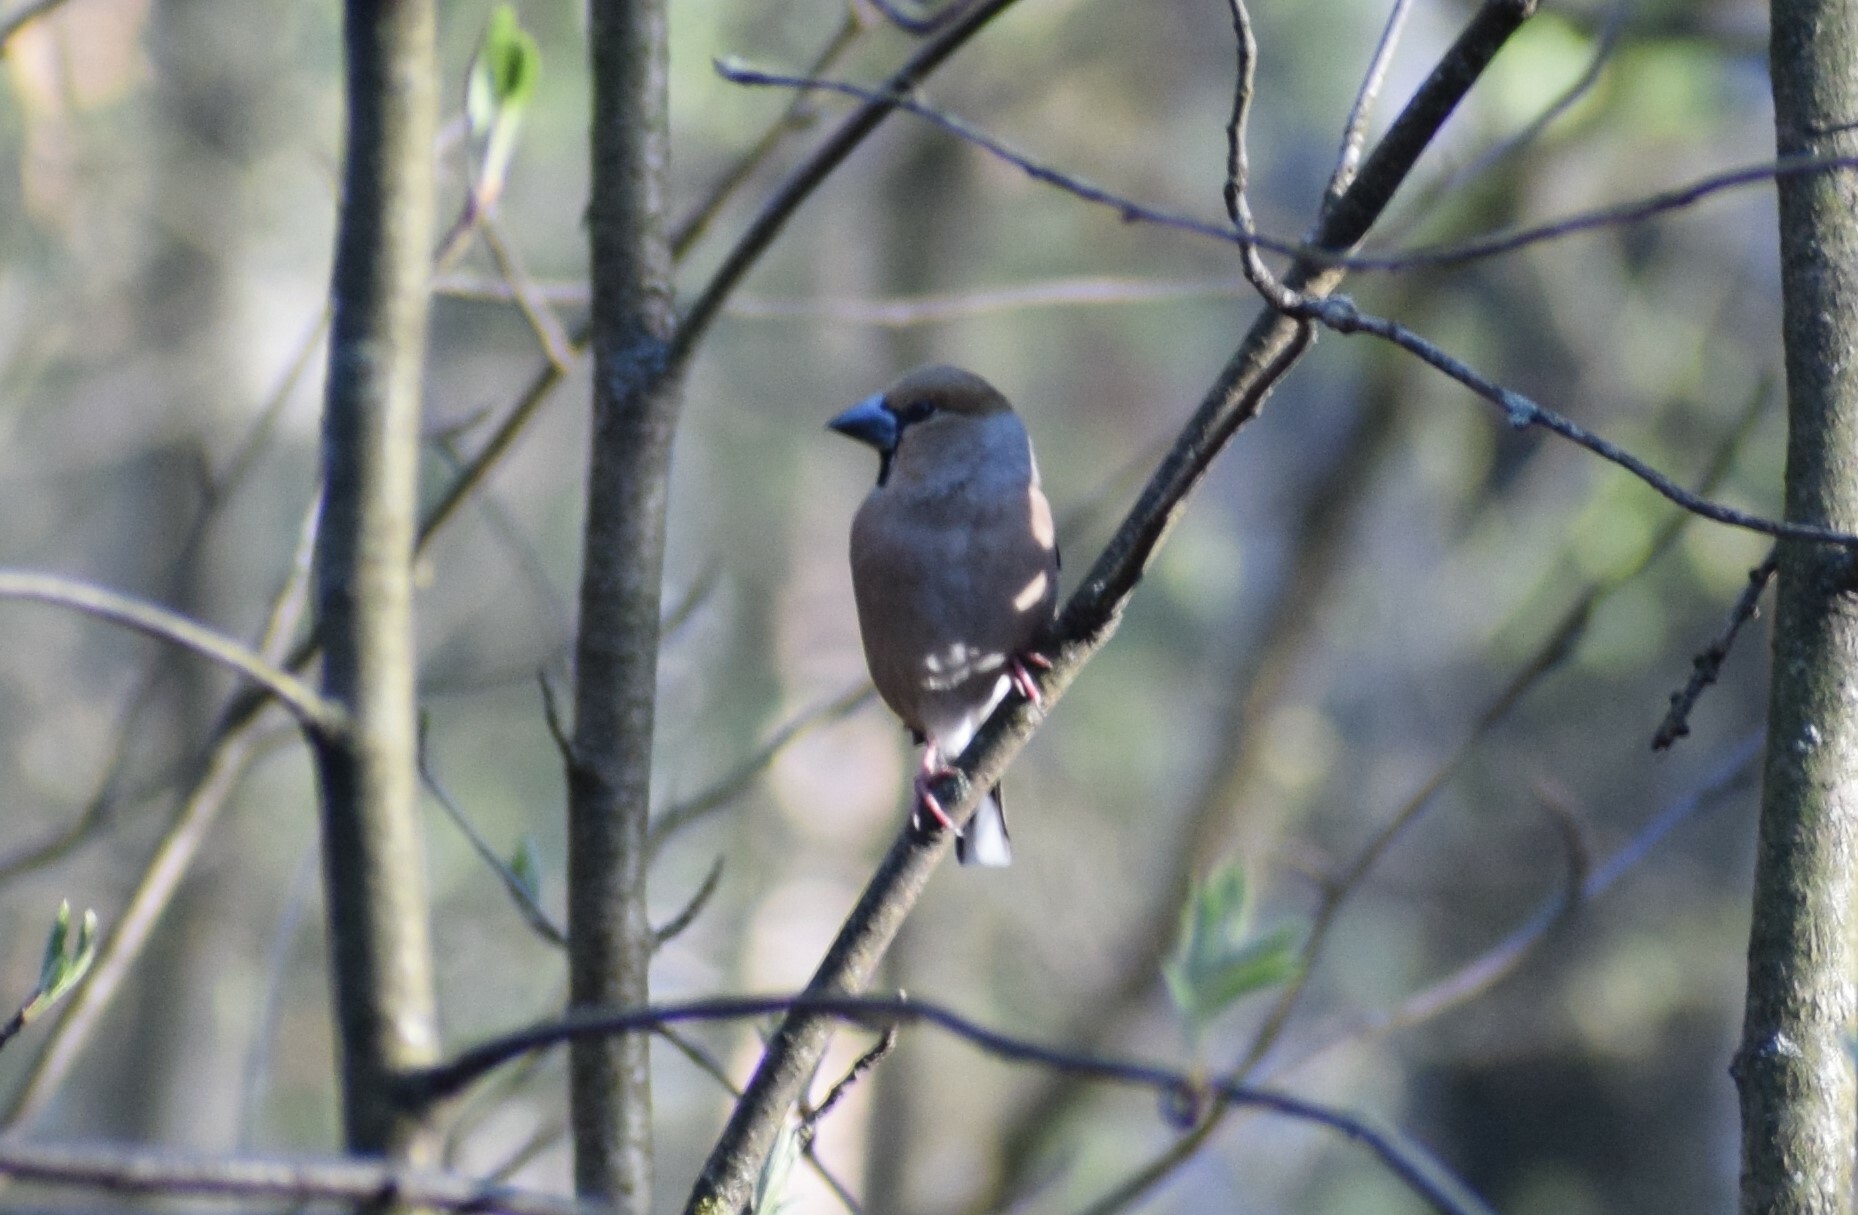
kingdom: Animalia
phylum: Chordata
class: Aves
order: Passeriformes
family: Fringillidae
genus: Coccothraustes
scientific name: Coccothraustes coccothraustes
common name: Hawfinch
